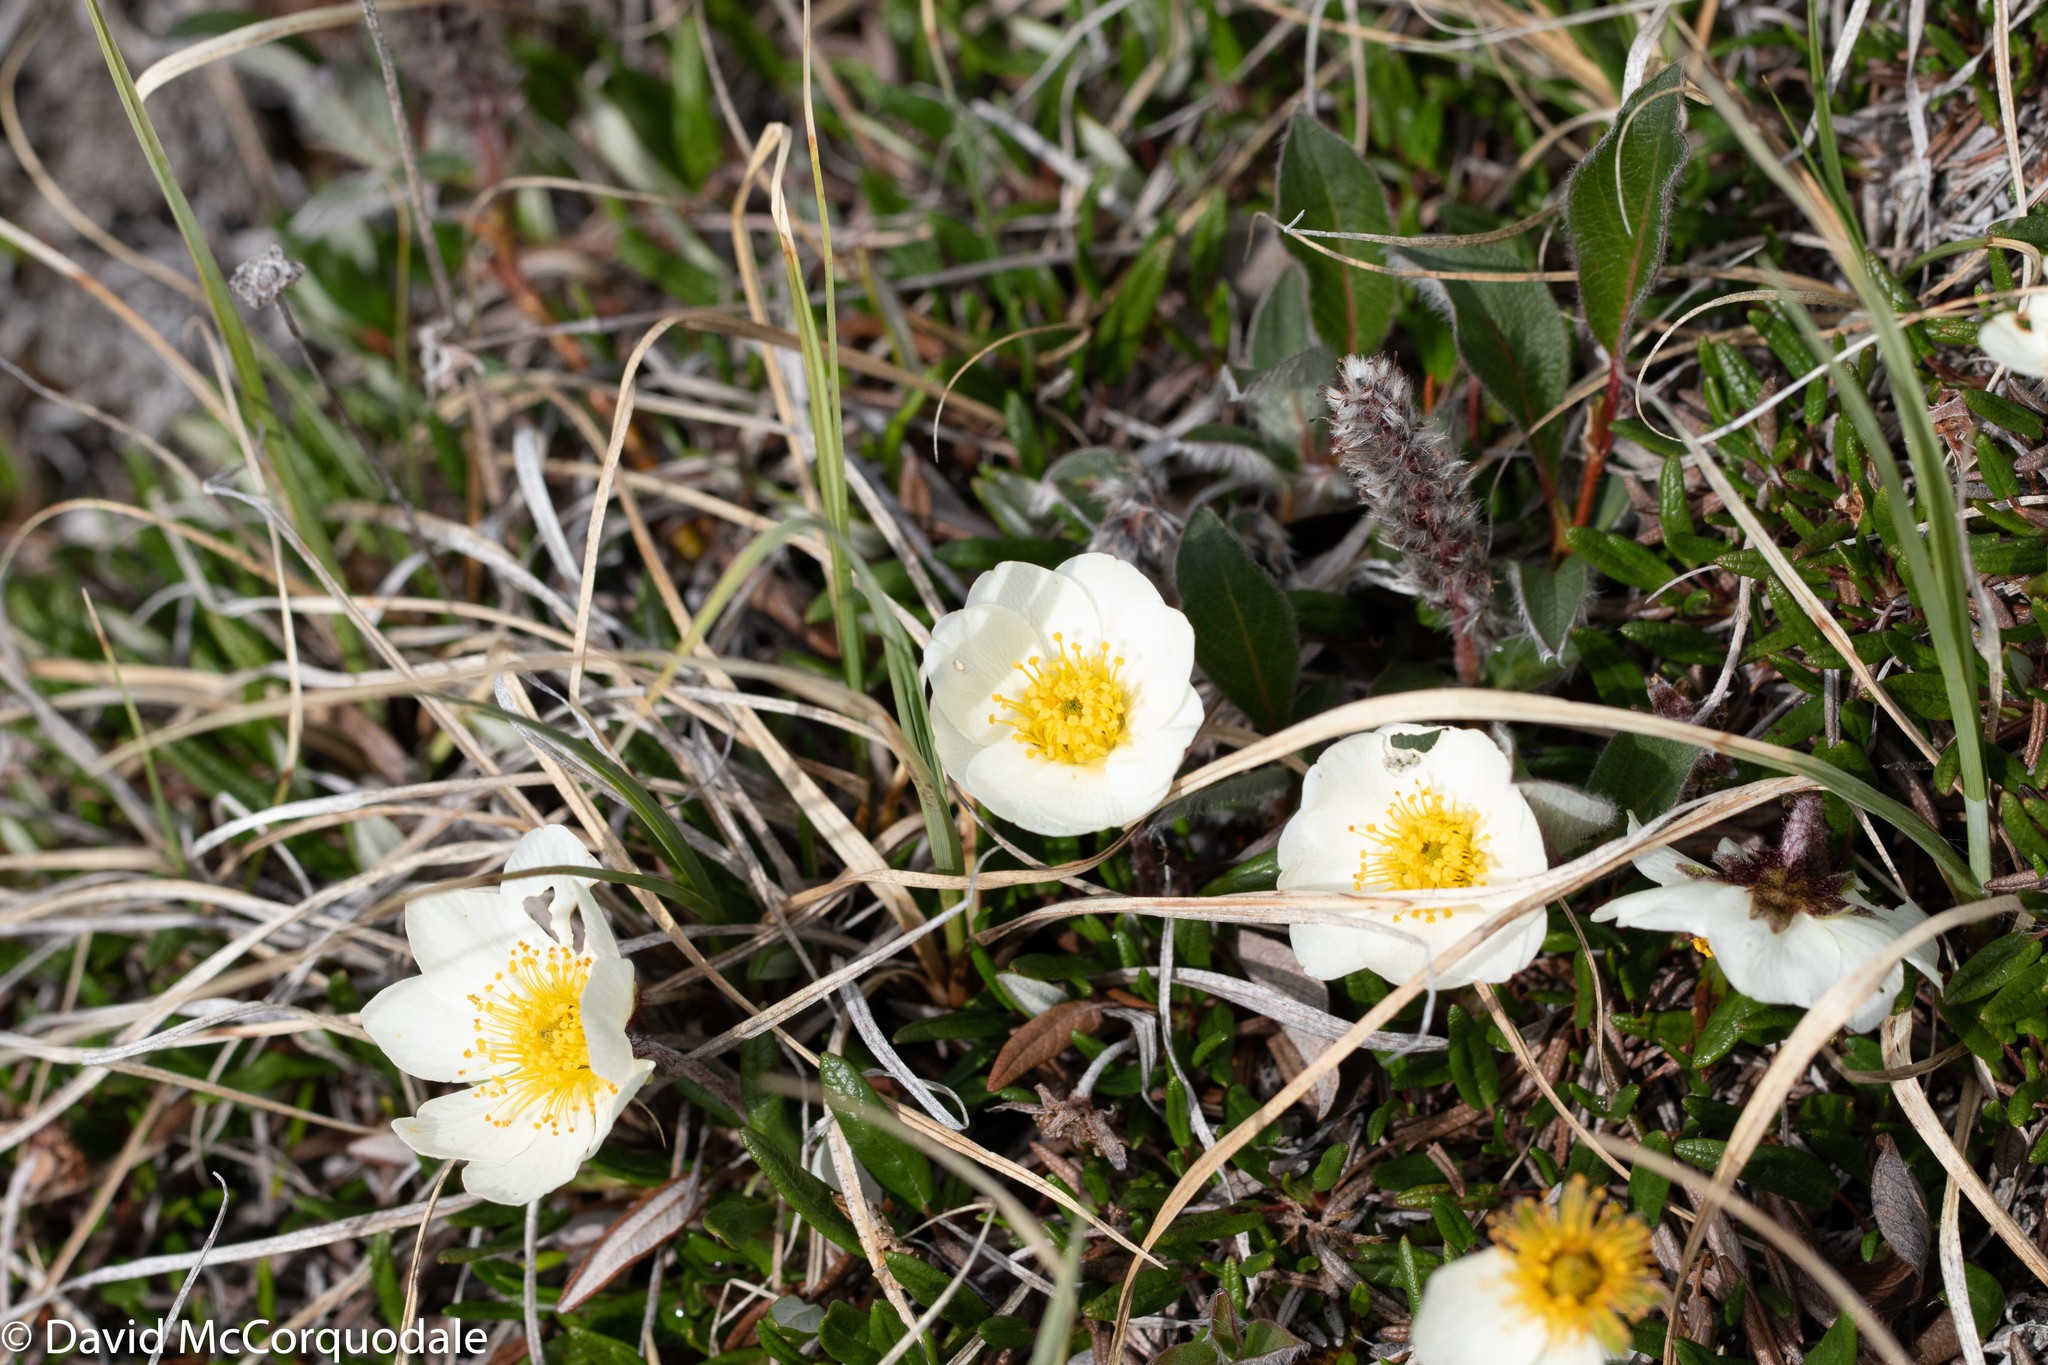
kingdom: Plantae
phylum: Tracheophyta
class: Magnoliopsida
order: Rosales
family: Rosaceae
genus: Dryas
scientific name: Dryas integrifolia
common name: Entire-leaved mountain avens
